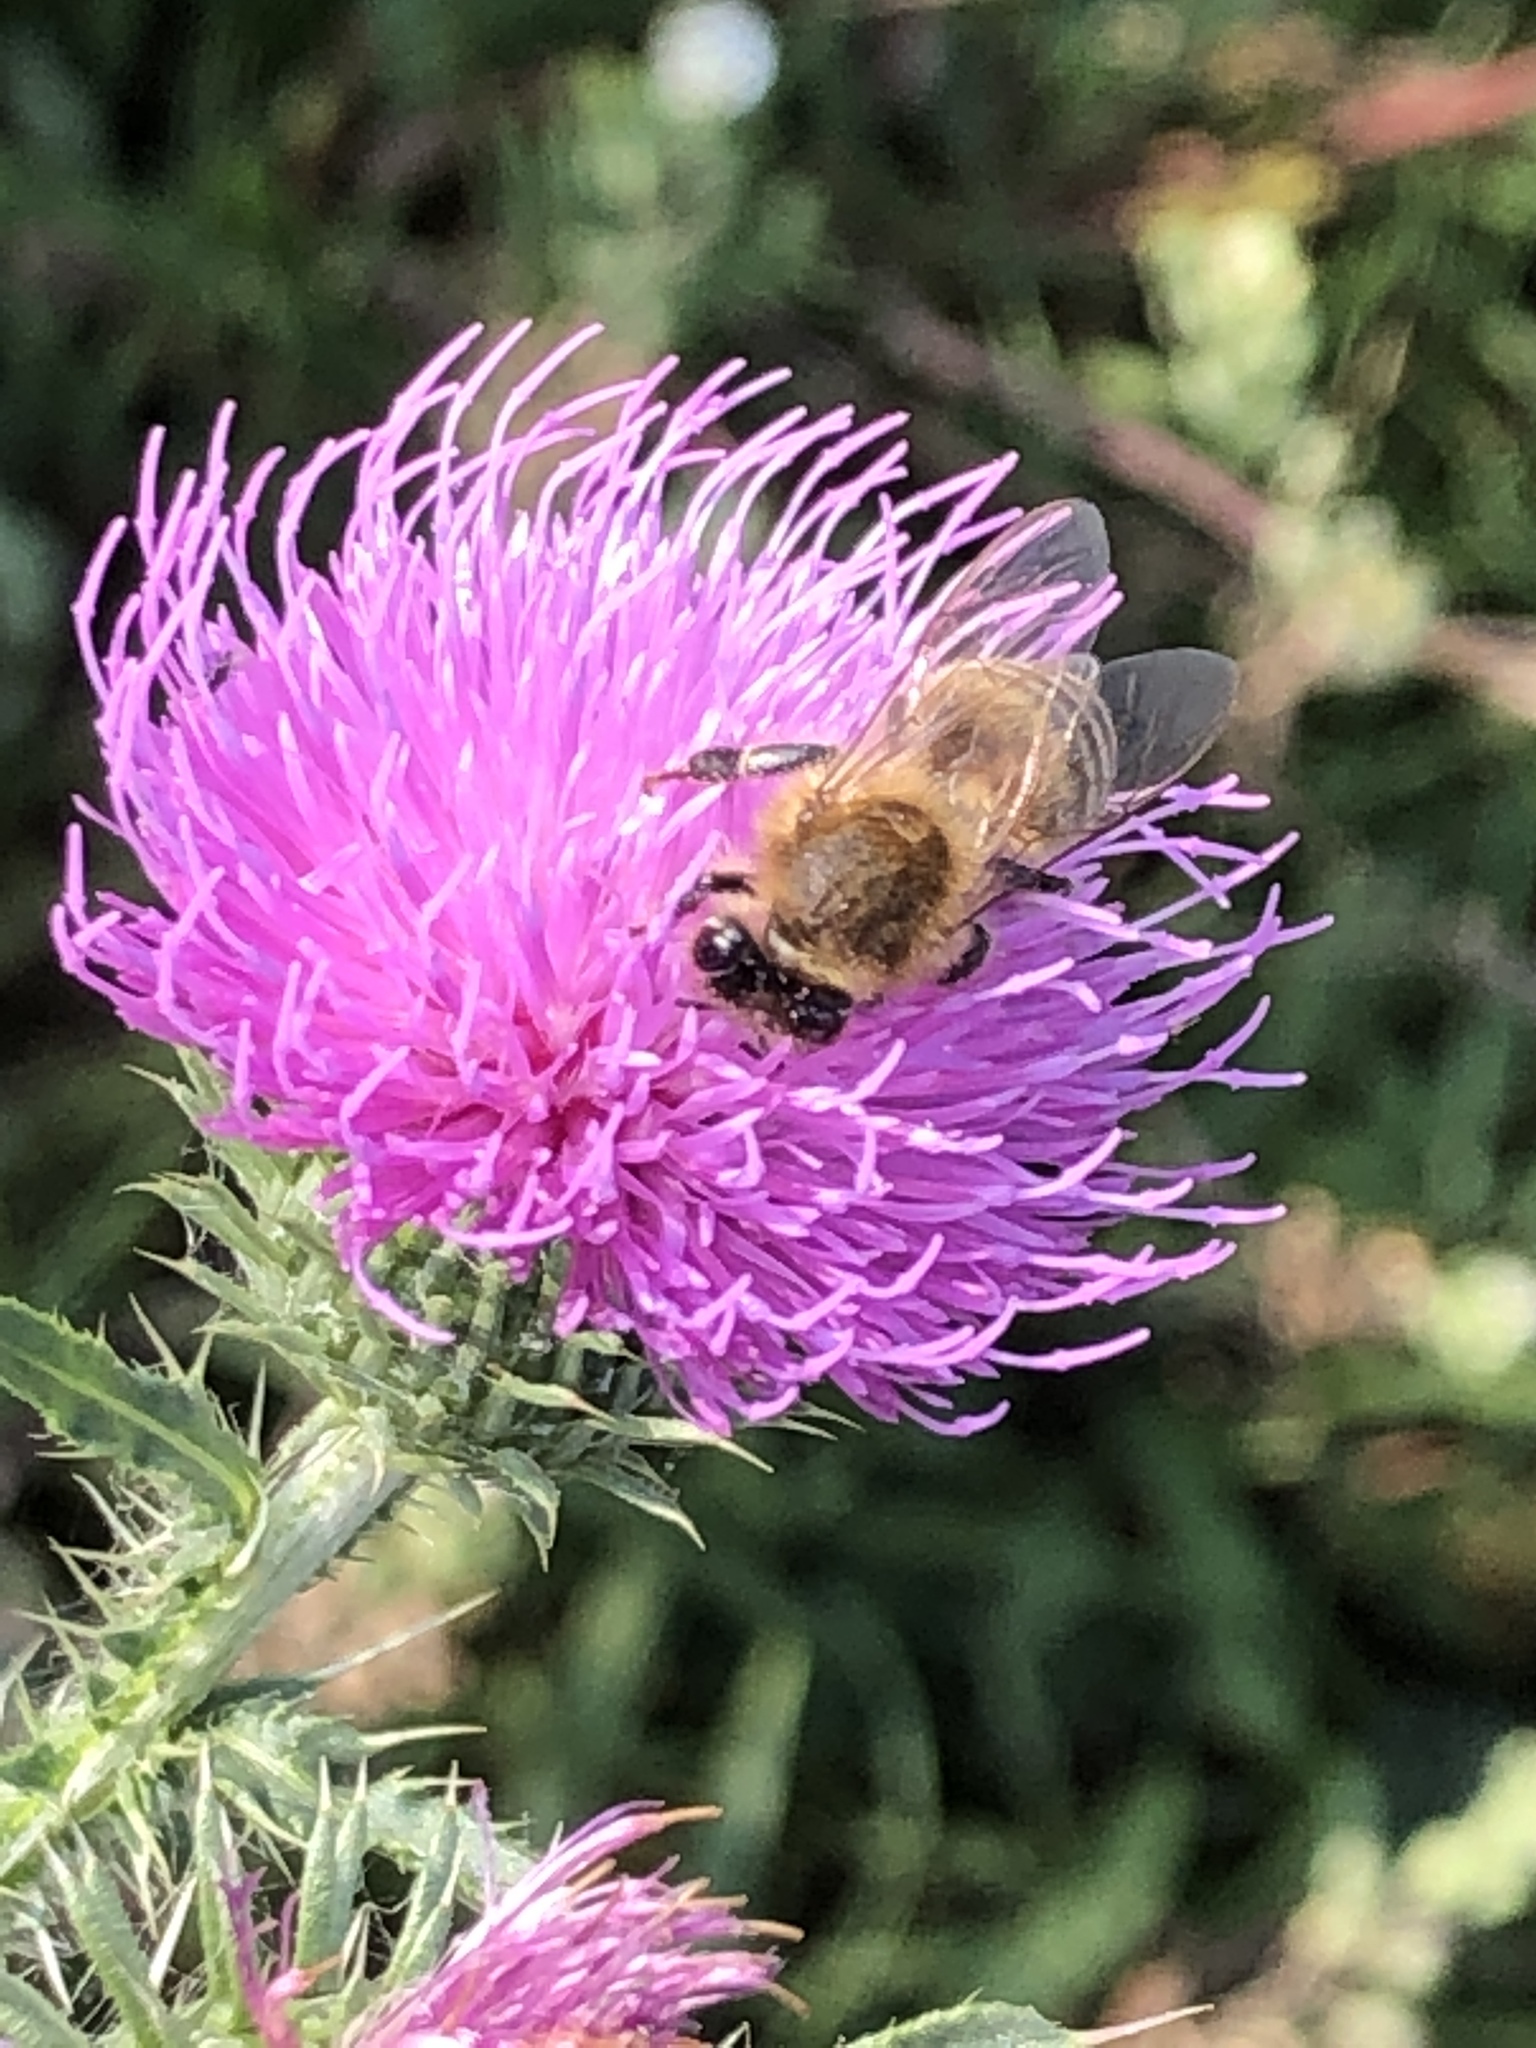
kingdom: Animalia
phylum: Arthropoda
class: Insecta
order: Hymenoptera
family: Apidae
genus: Apis
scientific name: Apis mellifera
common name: Honey bee
